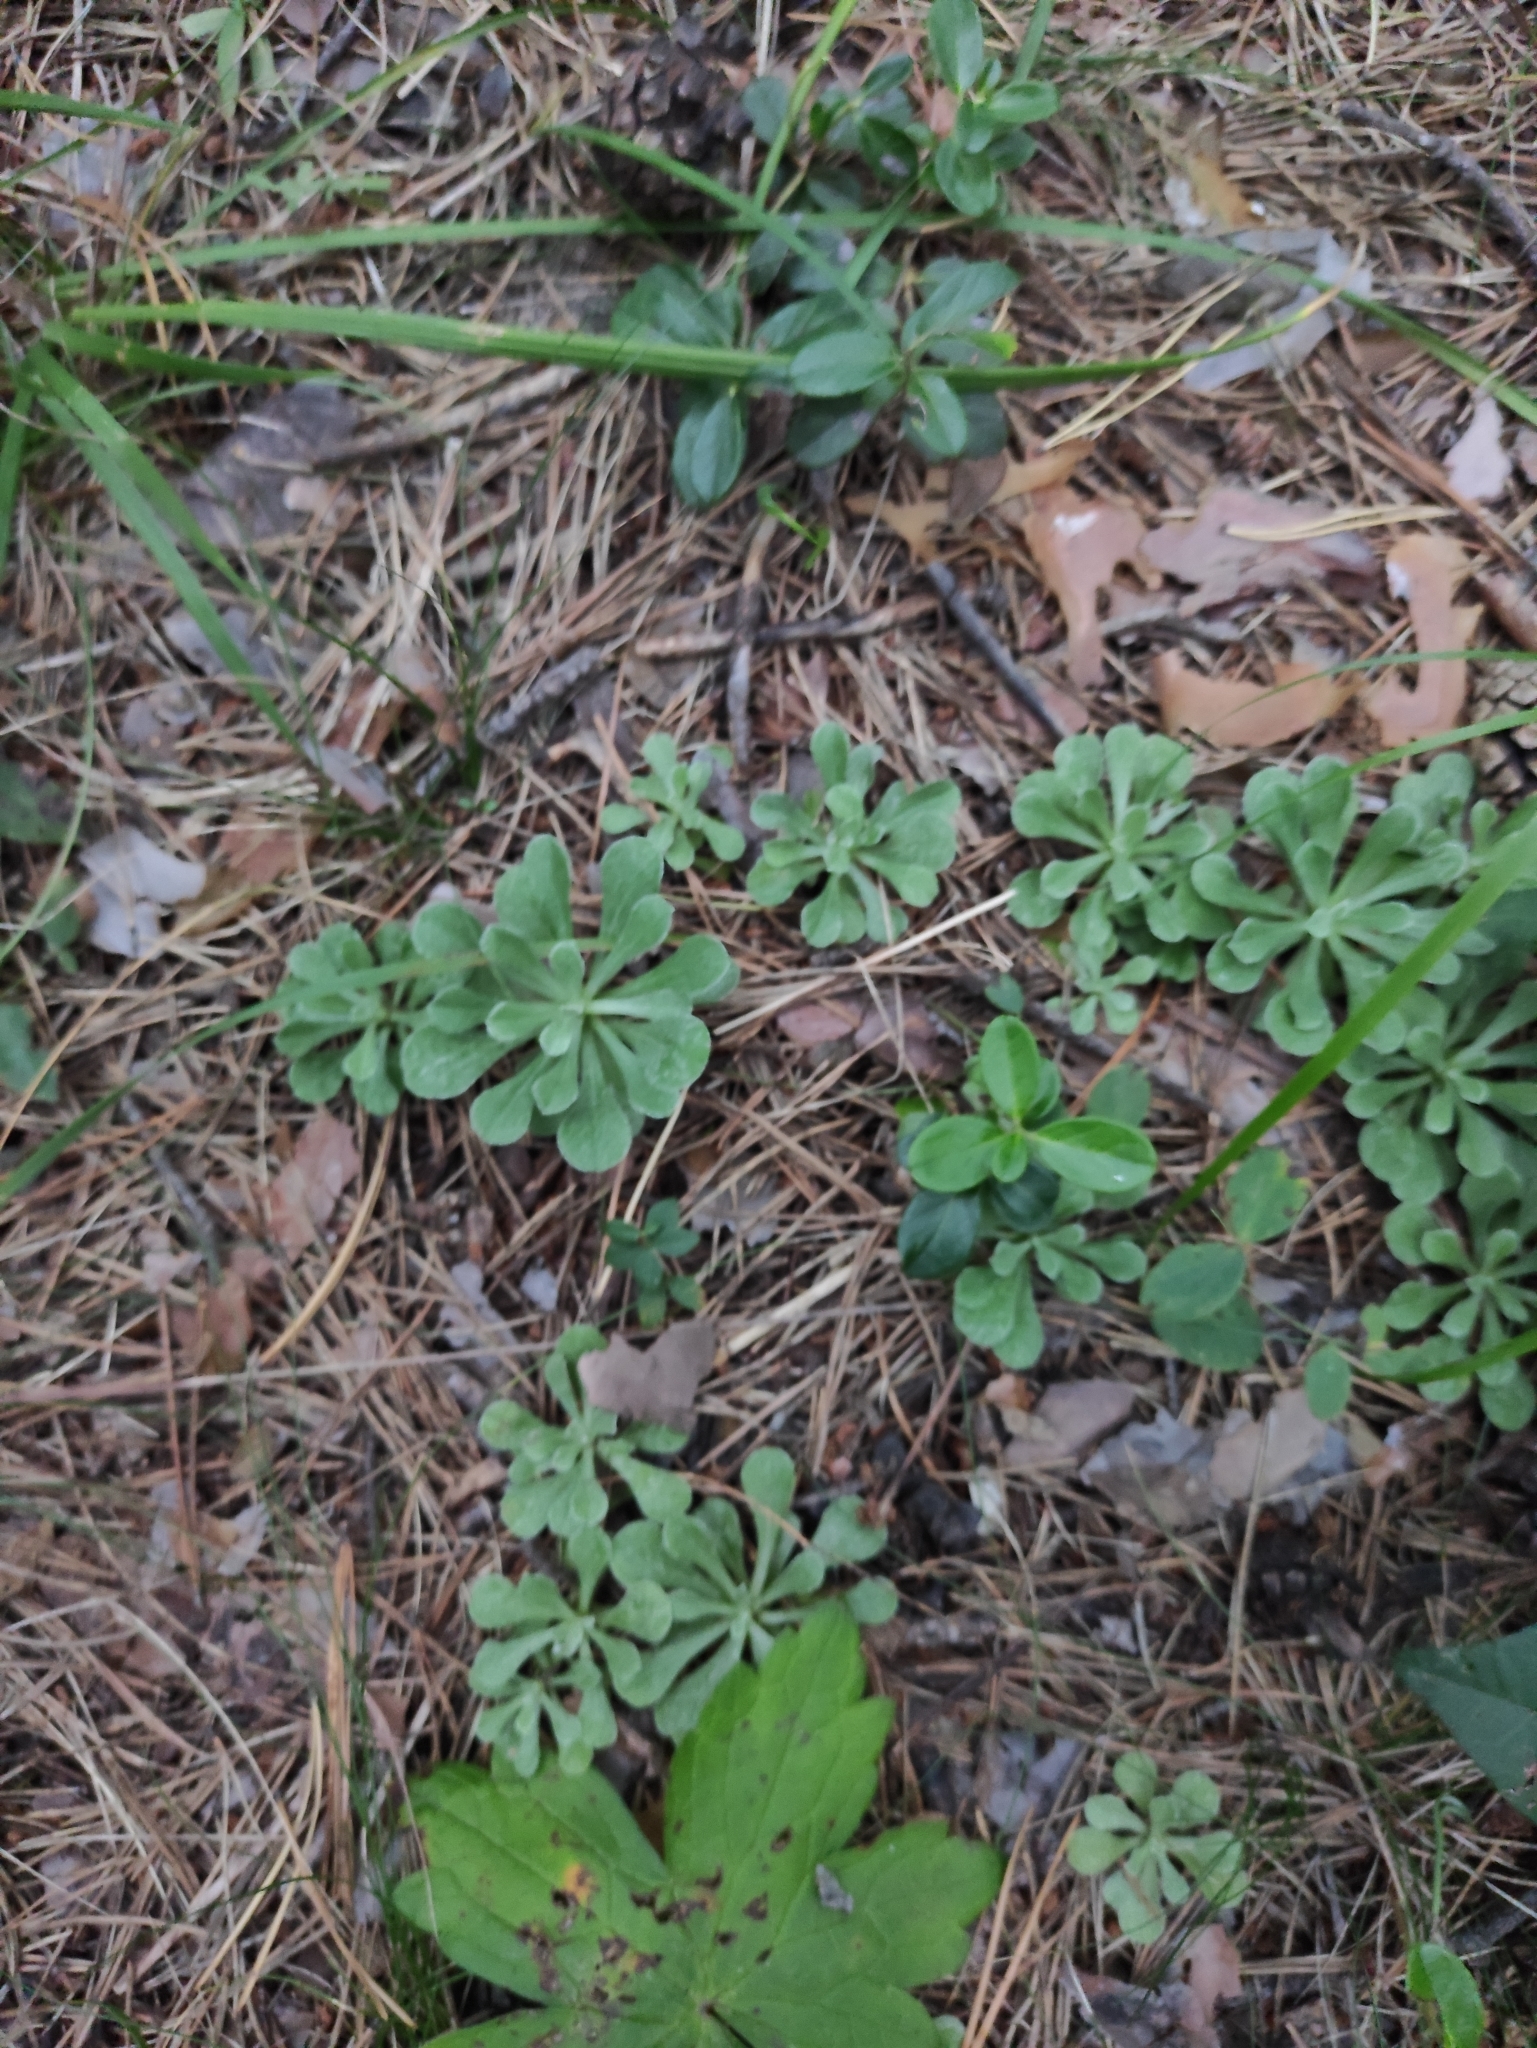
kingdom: Plantae
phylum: Tracheophyta
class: Magnoliopsida
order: Asterales
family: Asteraceae
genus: Antennaria
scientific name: Antennaria dioica
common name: Mountain everlasting
